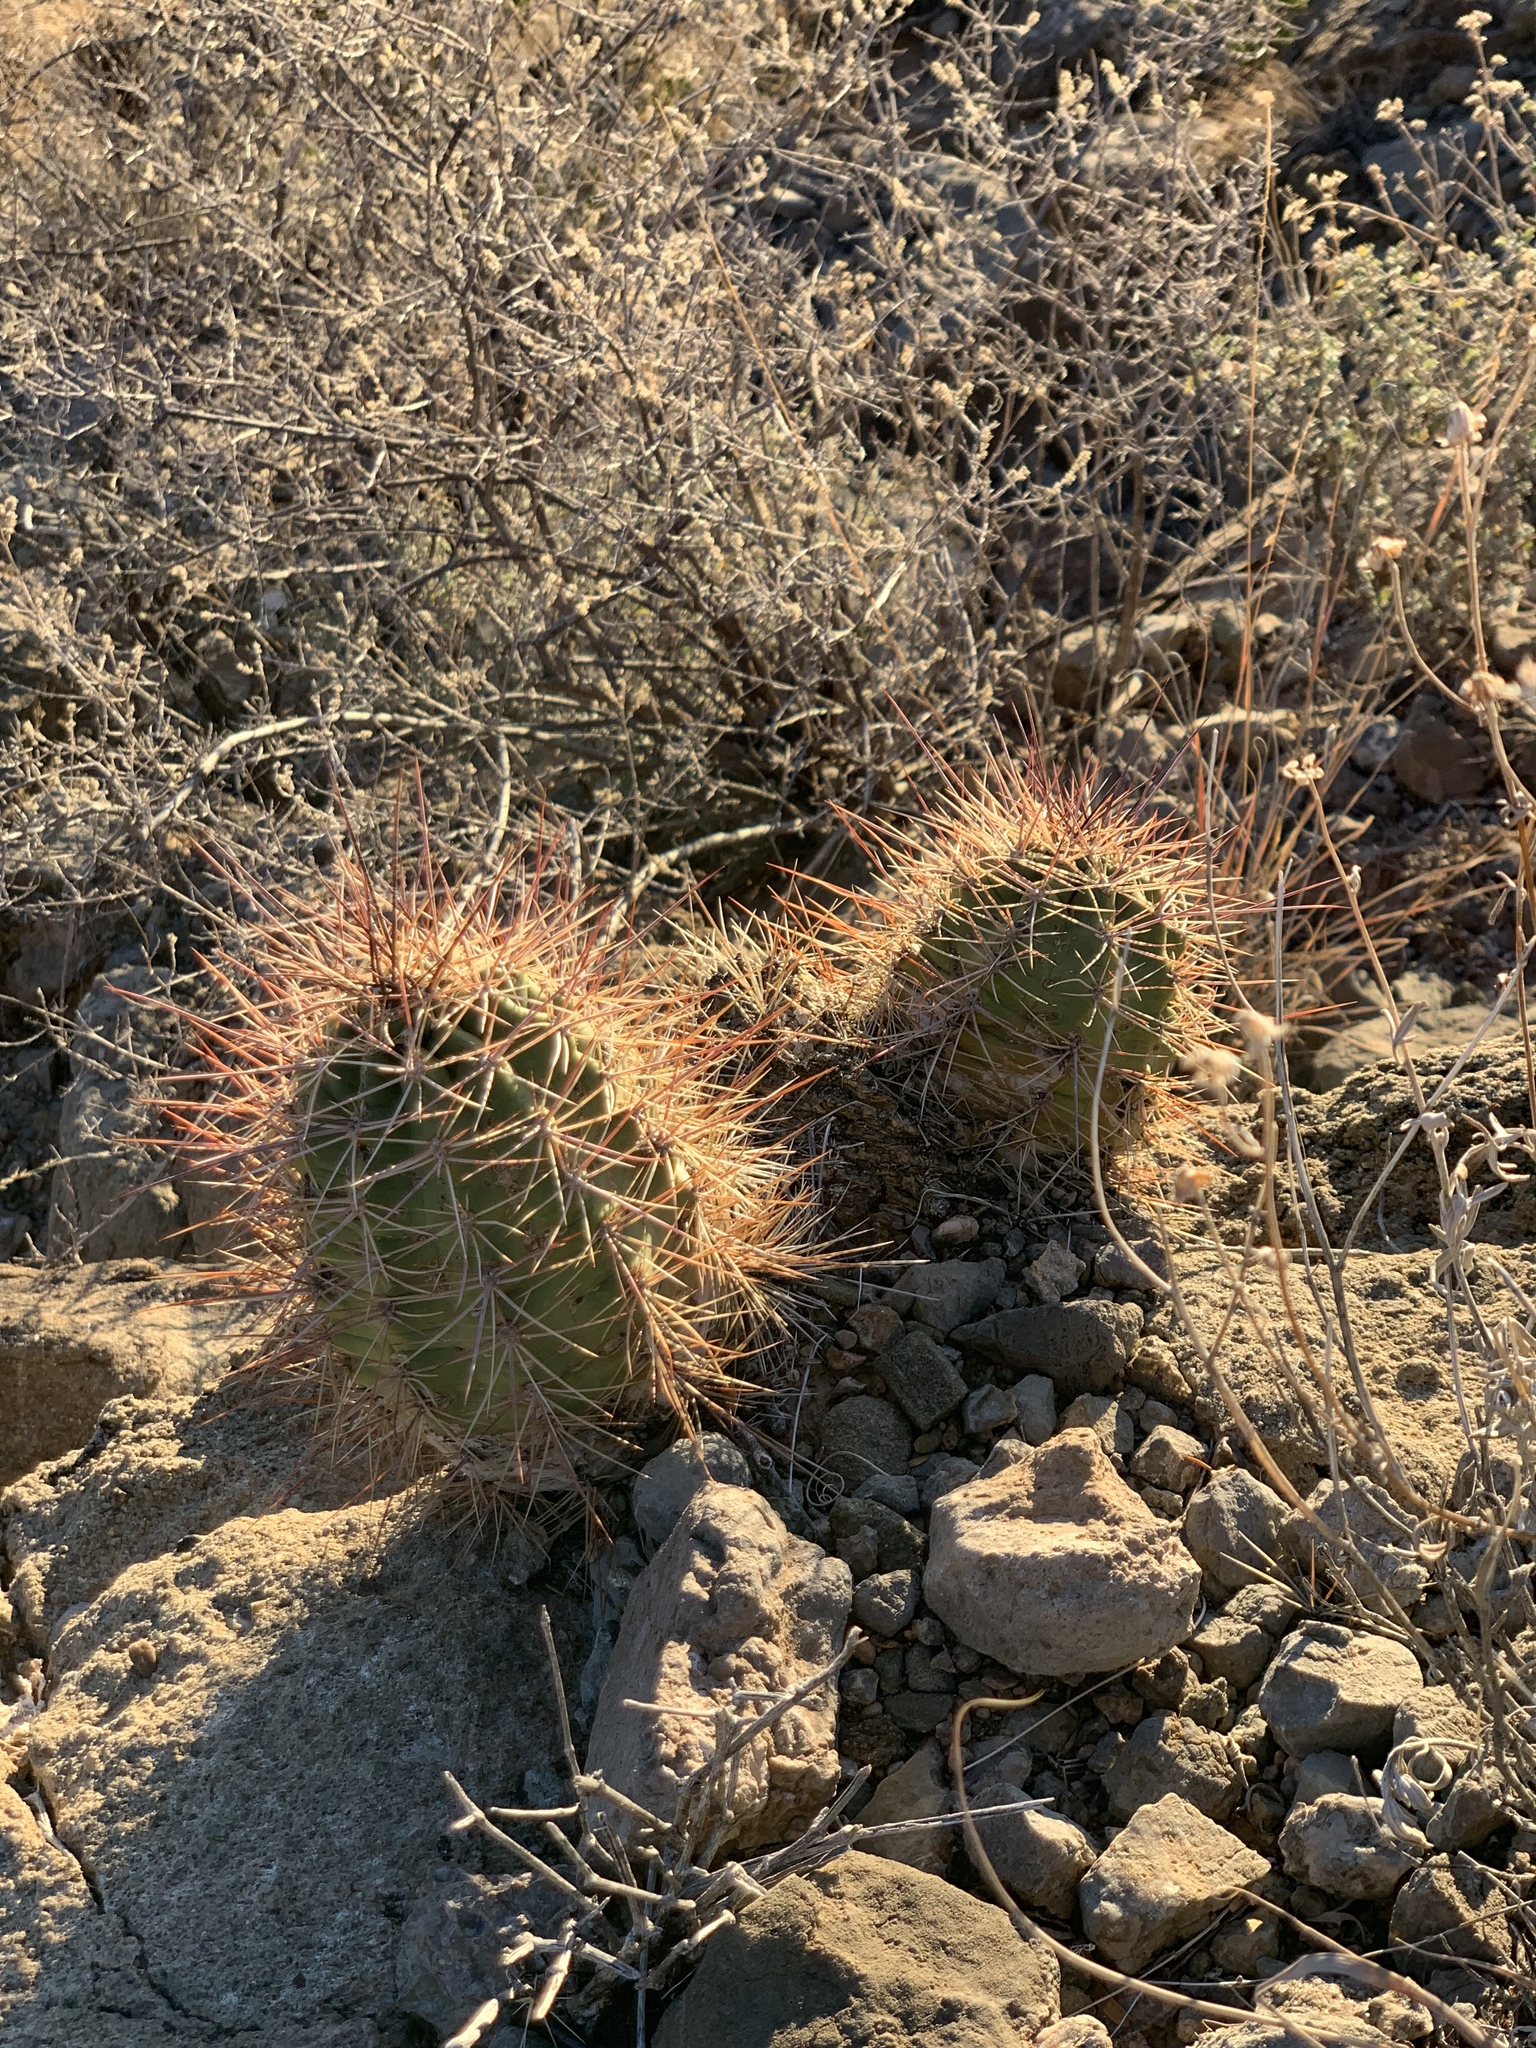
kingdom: Plantae
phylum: Tracheophyta
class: Magnoliopsida
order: Caryophyllales
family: Cactaceae
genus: Echinocereus
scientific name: Echinocereus coccineus
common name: Scarlet hedgehog cactus
